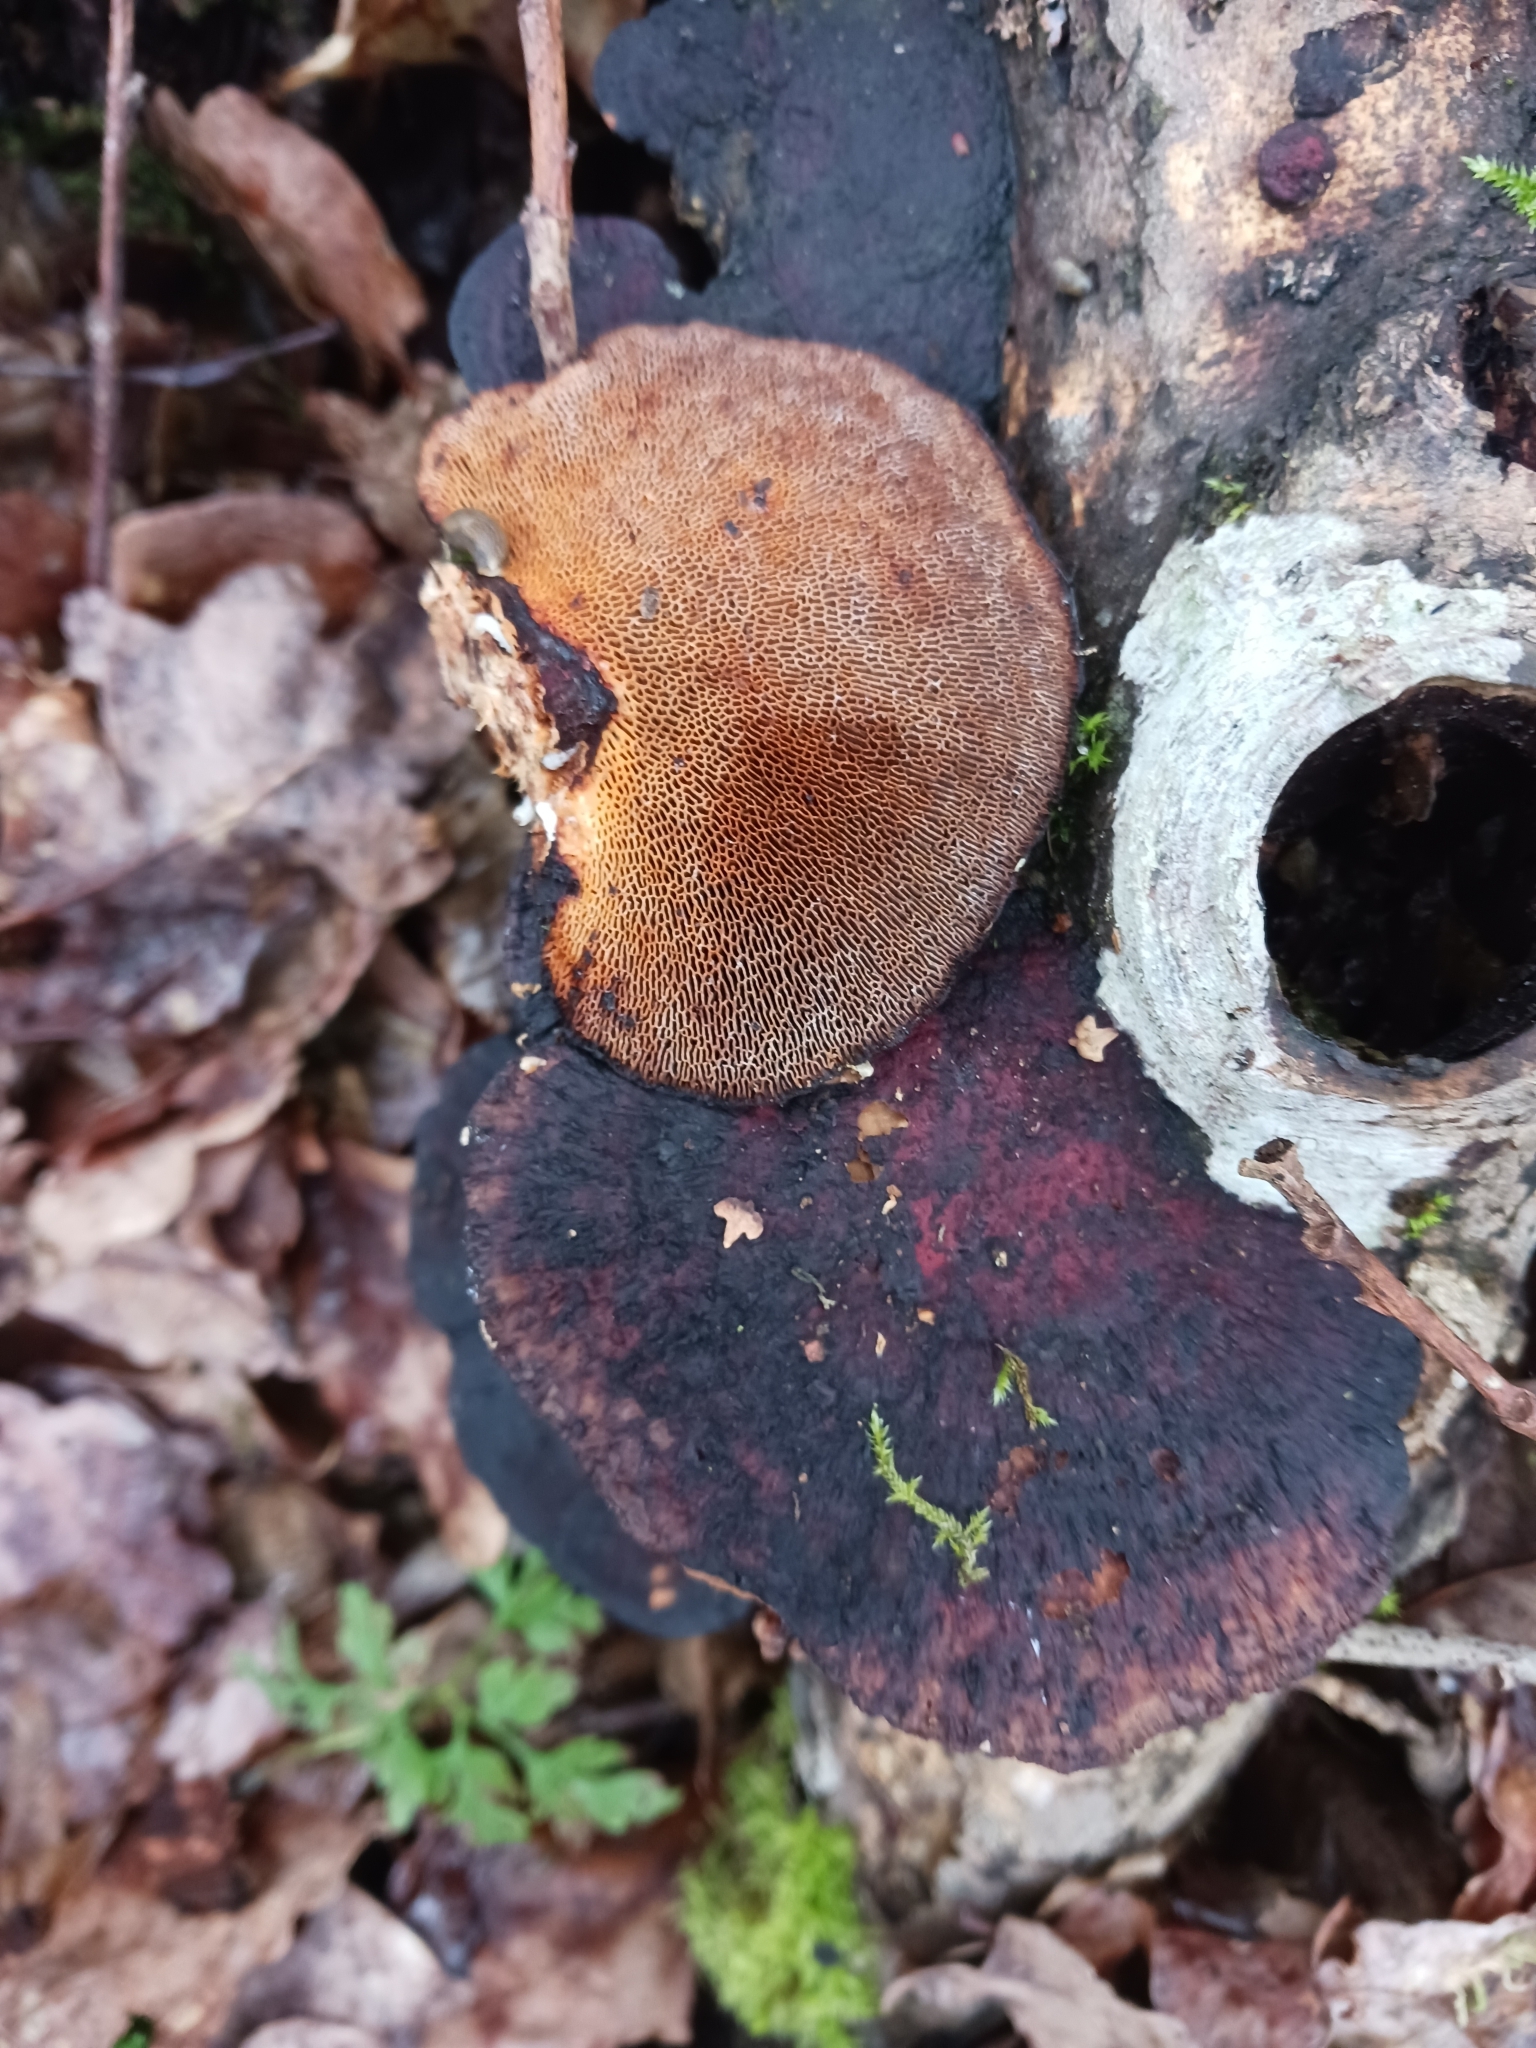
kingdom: Fungi
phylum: Basidiomycota
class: Agaricomycetes
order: Polyporales
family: Polyporaceae
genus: Daedaleopsis
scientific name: Daedaleopsis confragosa
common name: Blushing bracket
